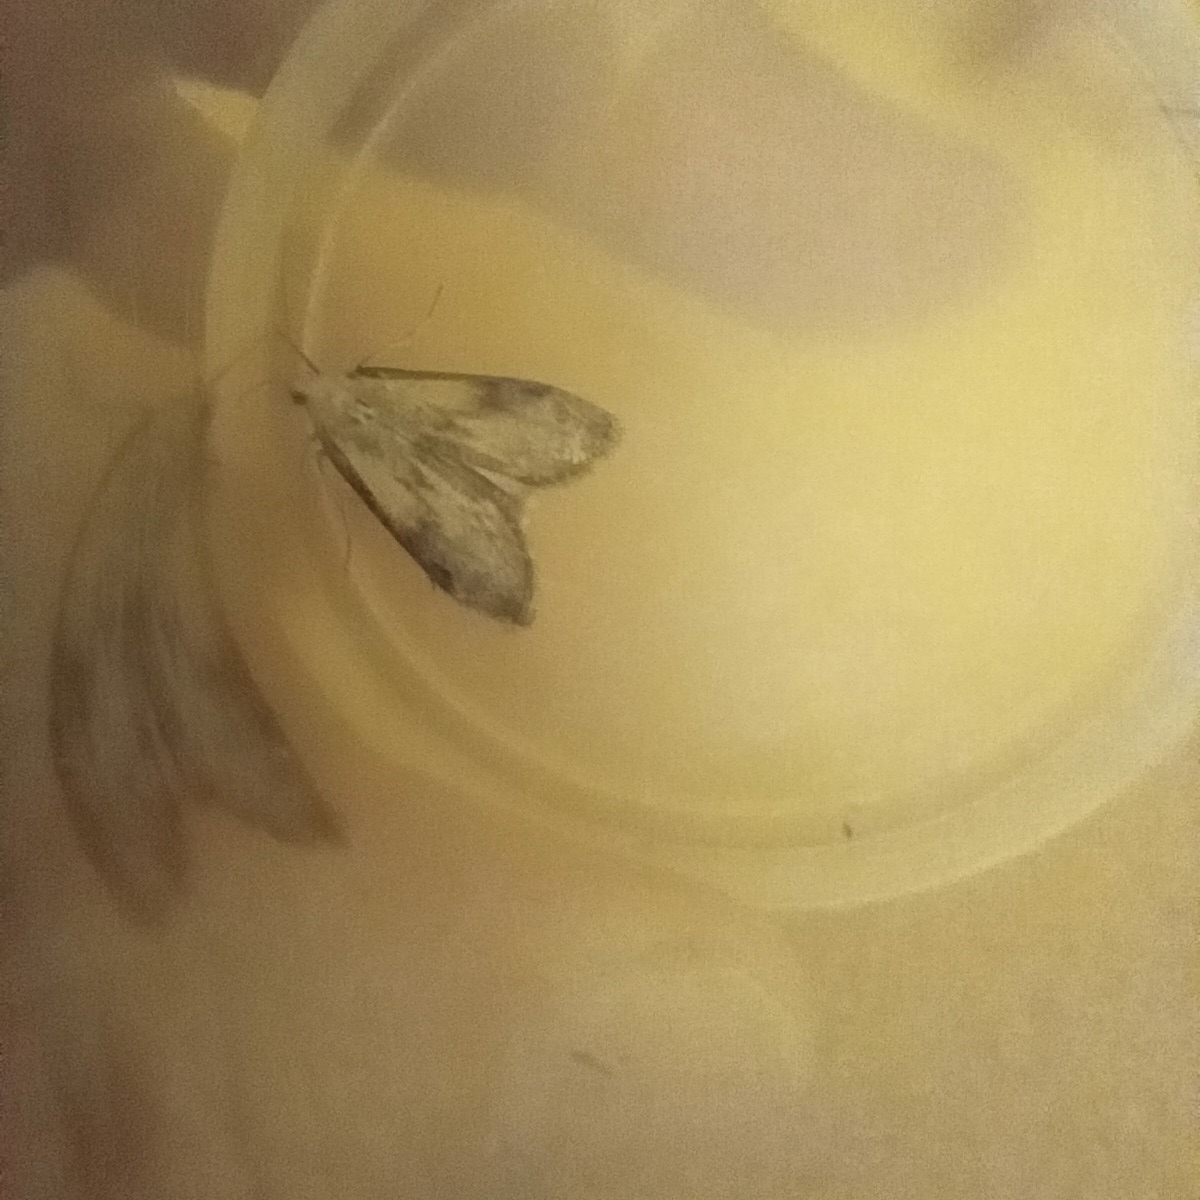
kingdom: Animalia
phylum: Arthropoda
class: Insecta
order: Lepidoptera
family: Pyralidae
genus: Aphomia
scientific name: Aphomia sociella
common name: Bee moth
